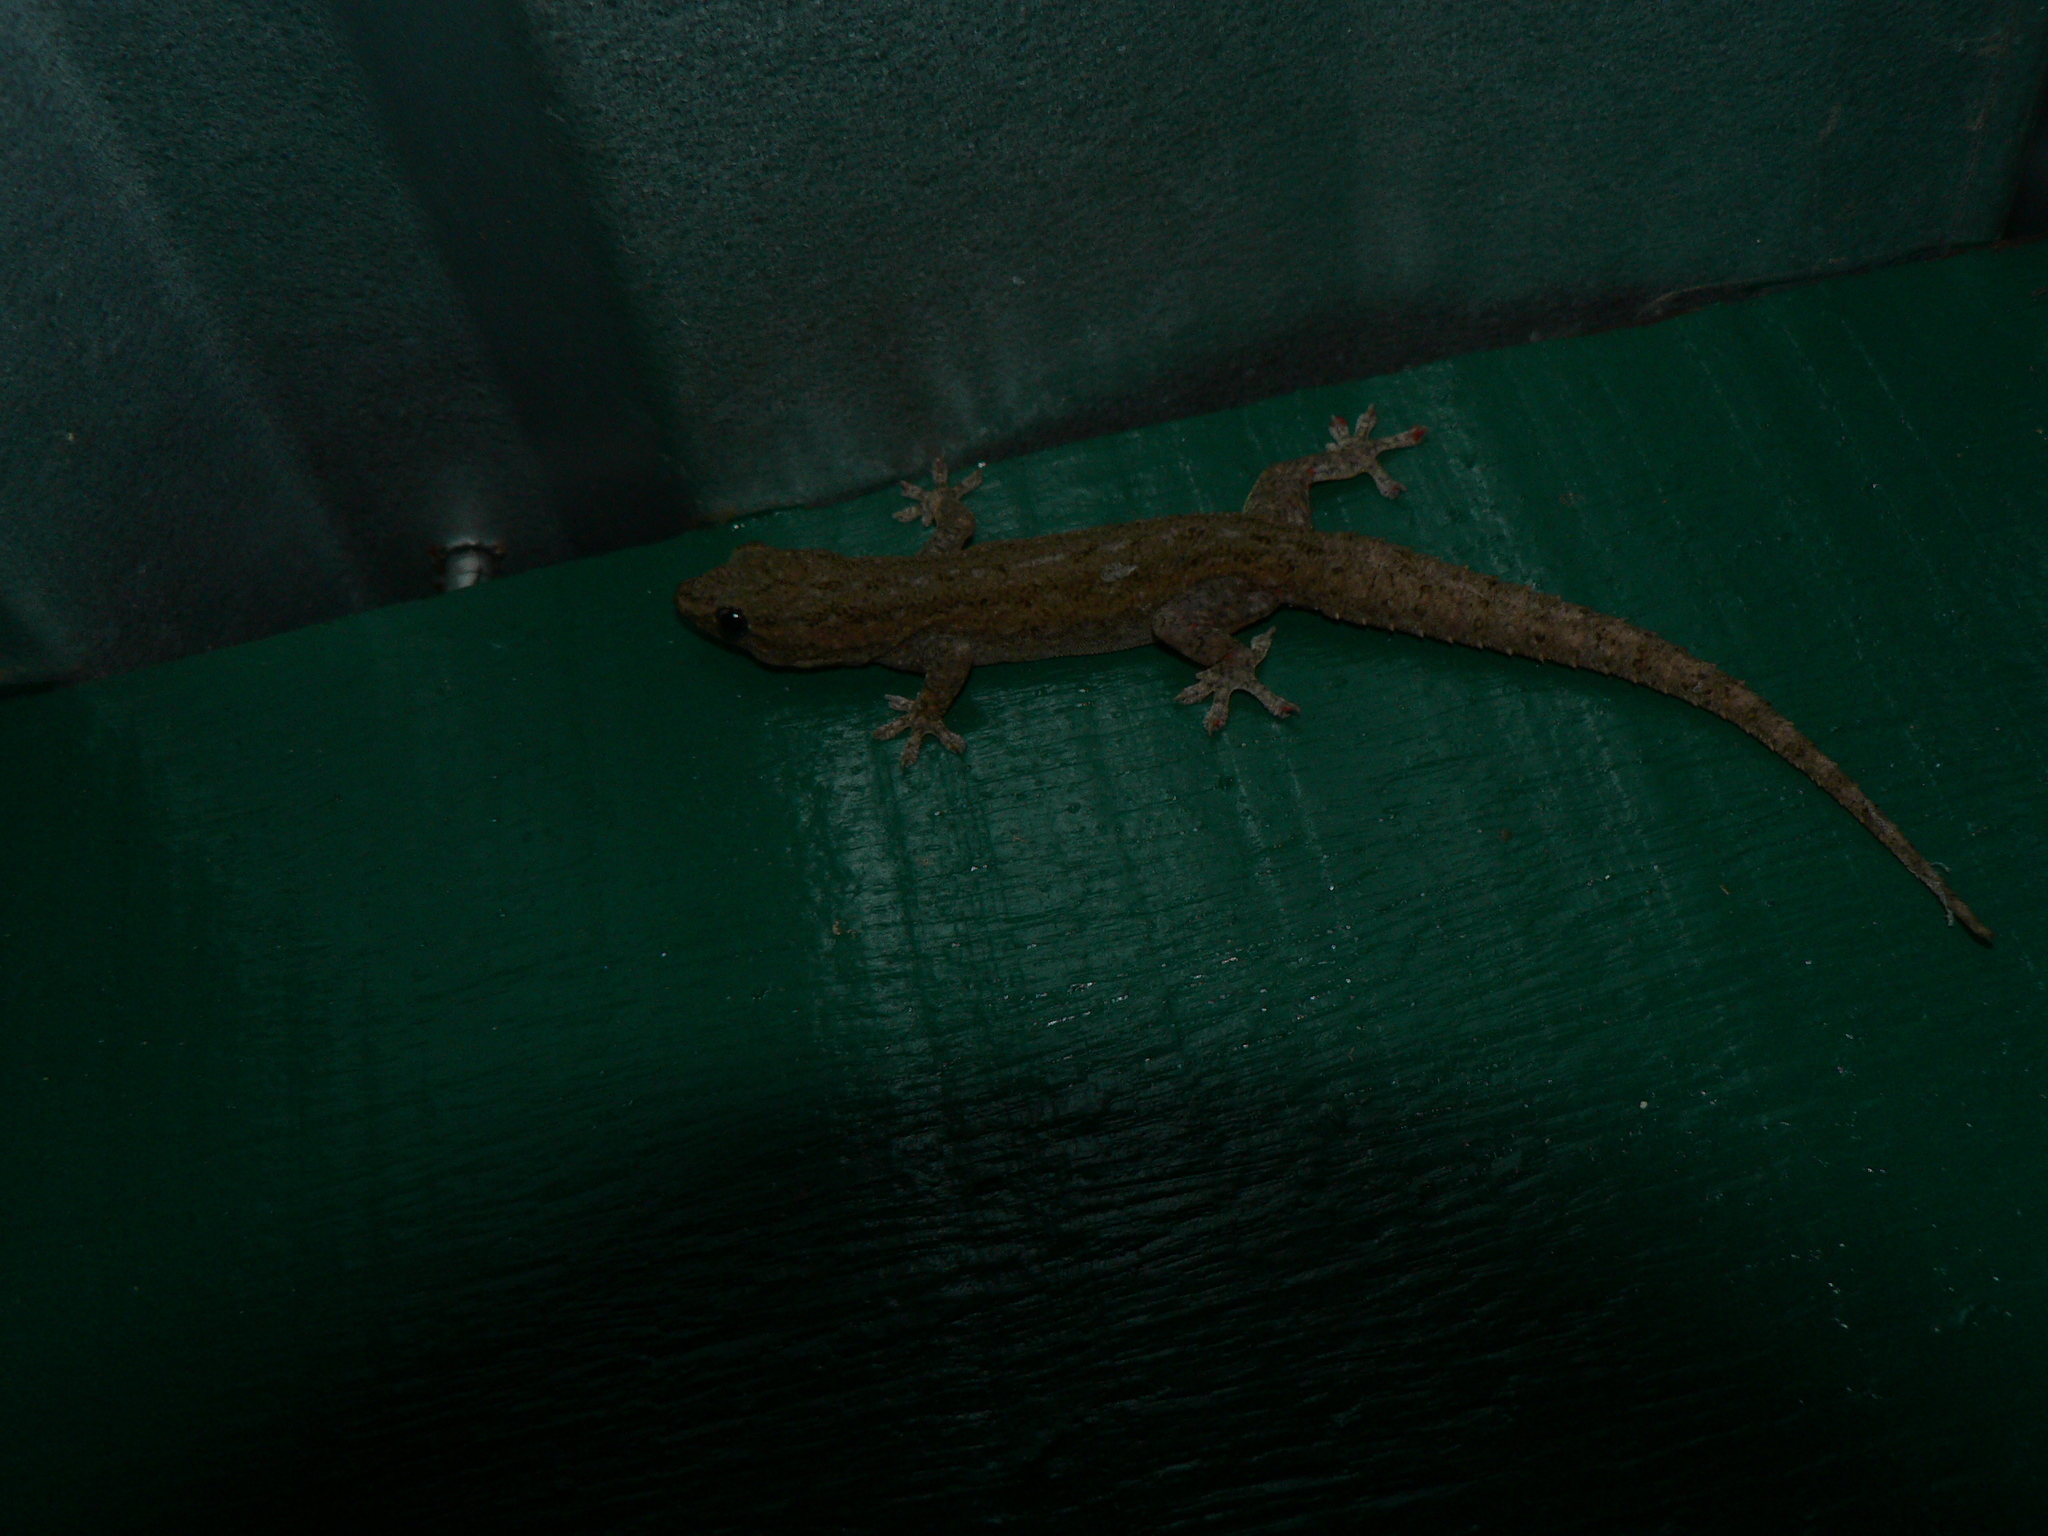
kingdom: Animalia
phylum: Chordata
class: Squamata
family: Gekkonidae
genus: Hemidactylus
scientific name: Hemidactylus frenatus
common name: Common house gecko
